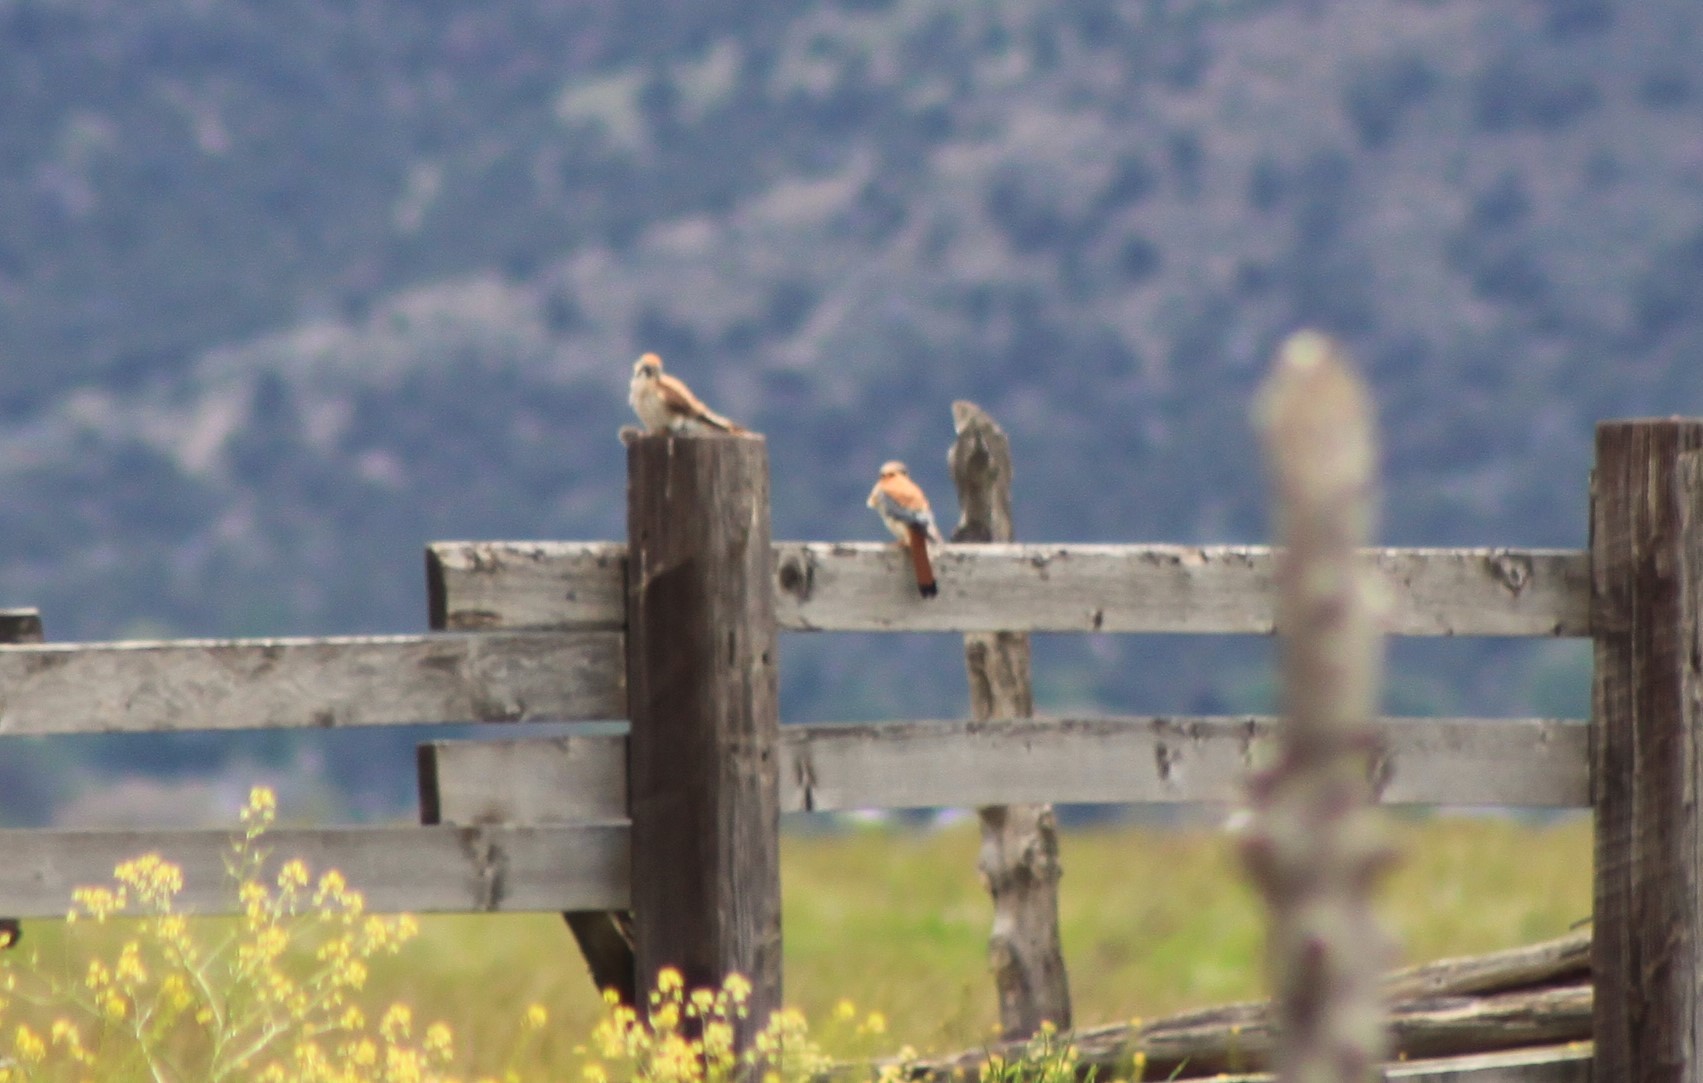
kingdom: Animalia
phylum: Chordata
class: Aves
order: Falconiformes
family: Falconidae
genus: Falco
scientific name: Falco sparverius
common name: American kestrel
